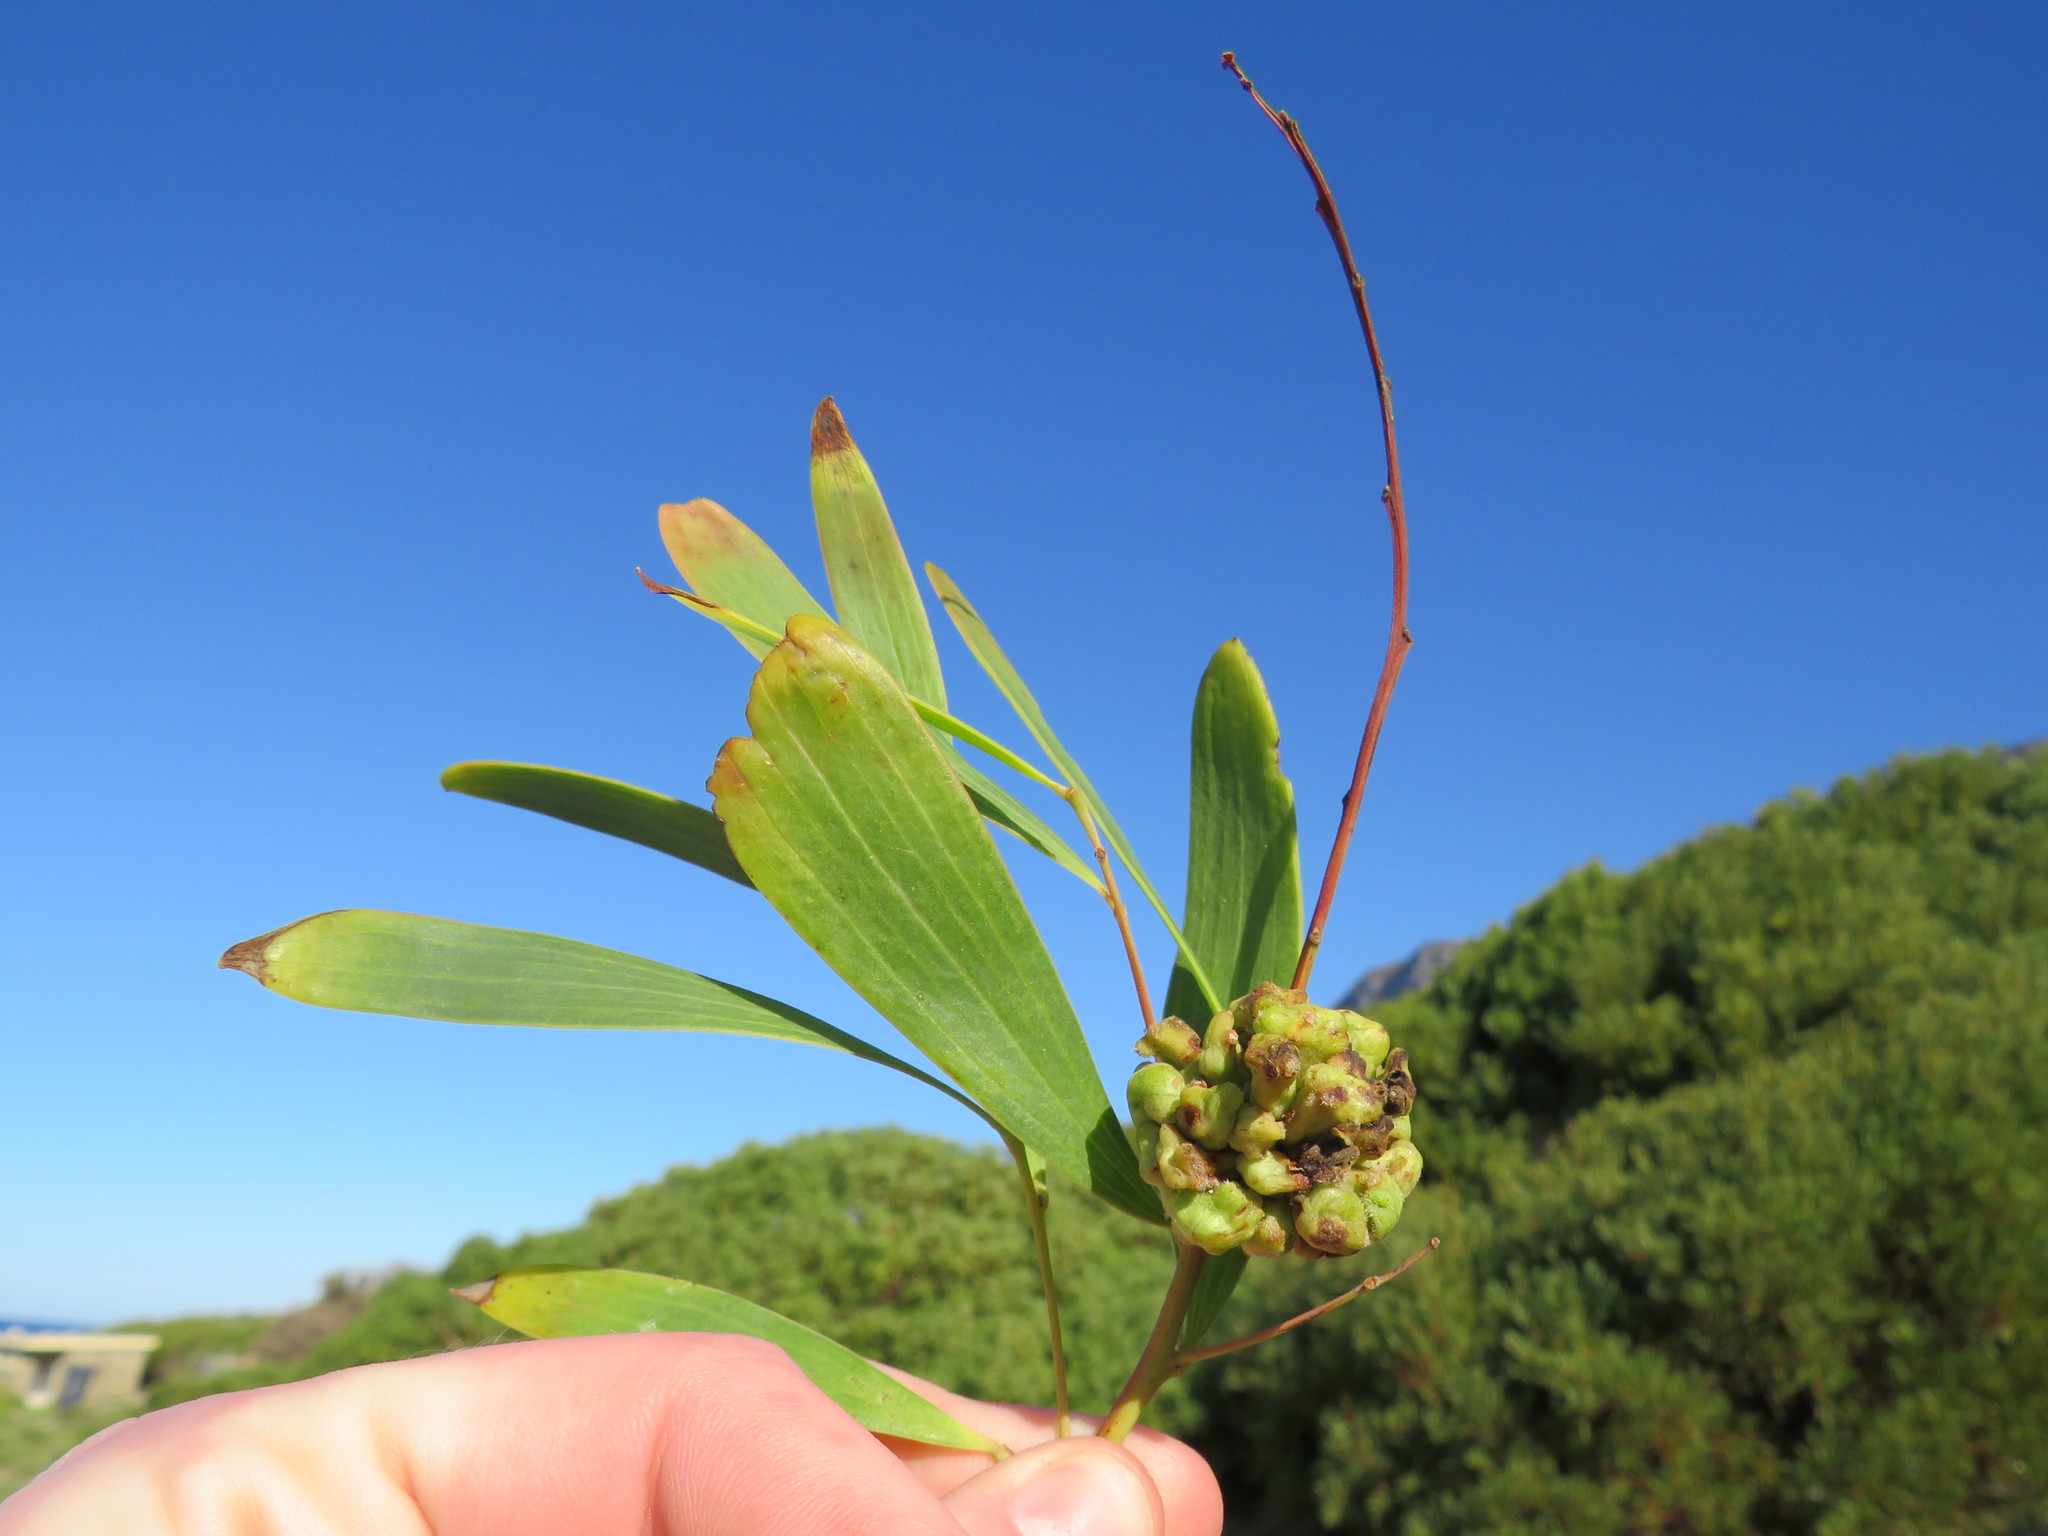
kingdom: Plantae
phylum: Tracheophyta
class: Magnoliopsida
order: Fabales
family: Fabaceae
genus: Acacia
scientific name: Acacia cyclops
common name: Coastal wattle
